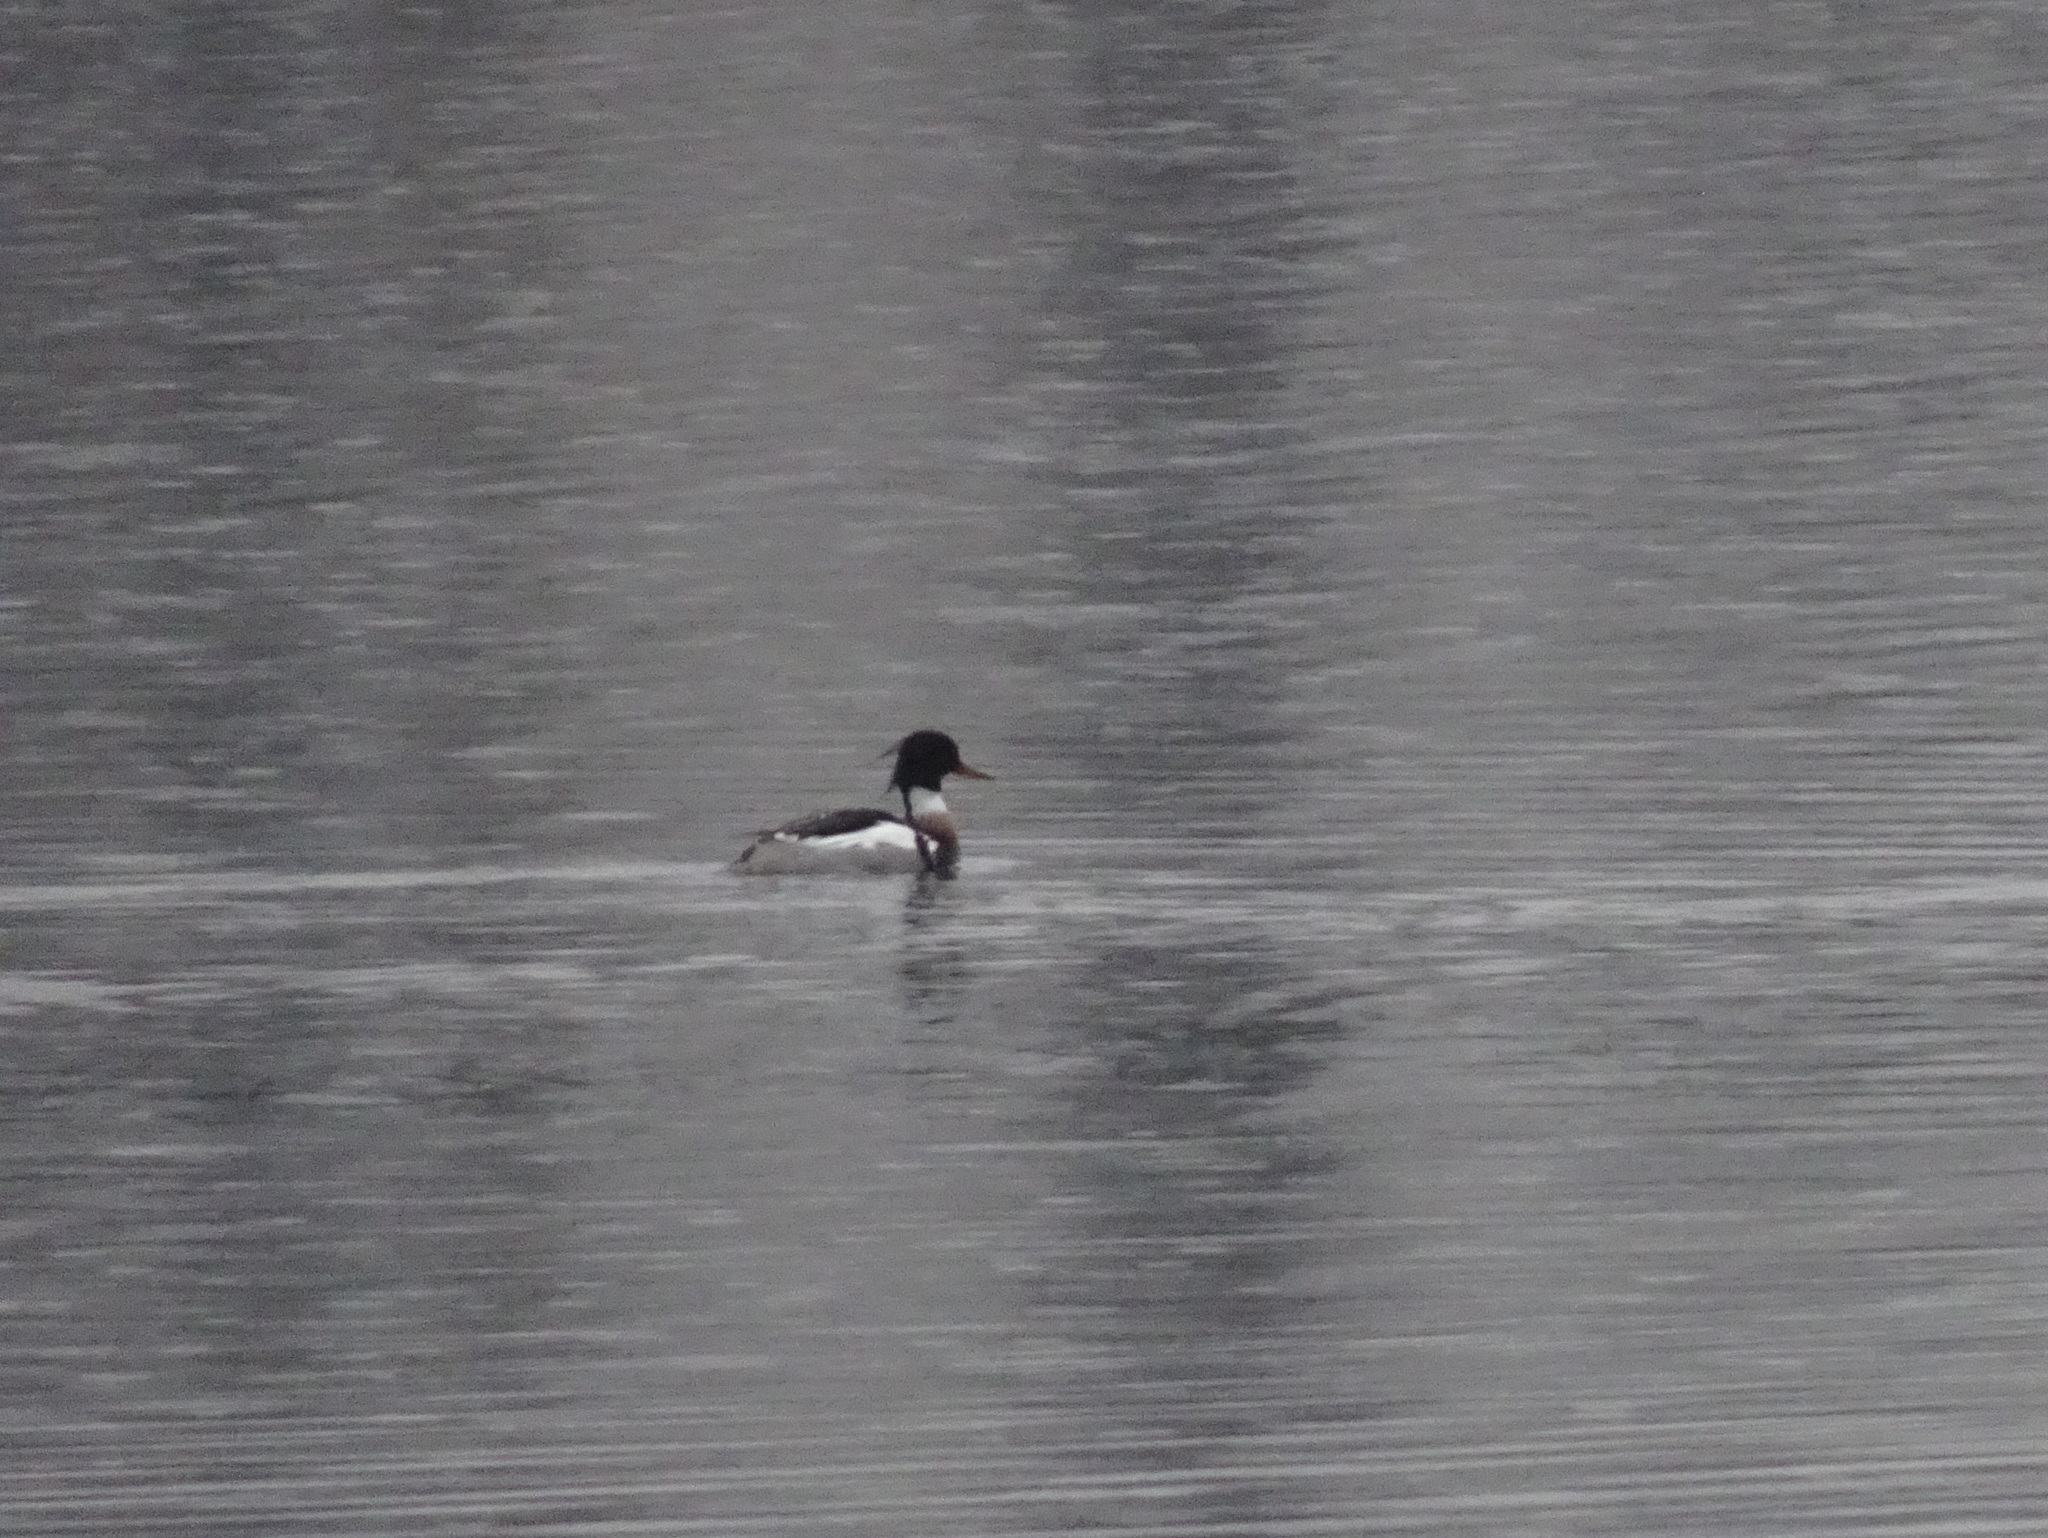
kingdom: Animalia
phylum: Chordata
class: Aves
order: Anseriformes
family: Anatidae
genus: Mergus
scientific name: Mergus serrator
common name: Red-breasted merganser
